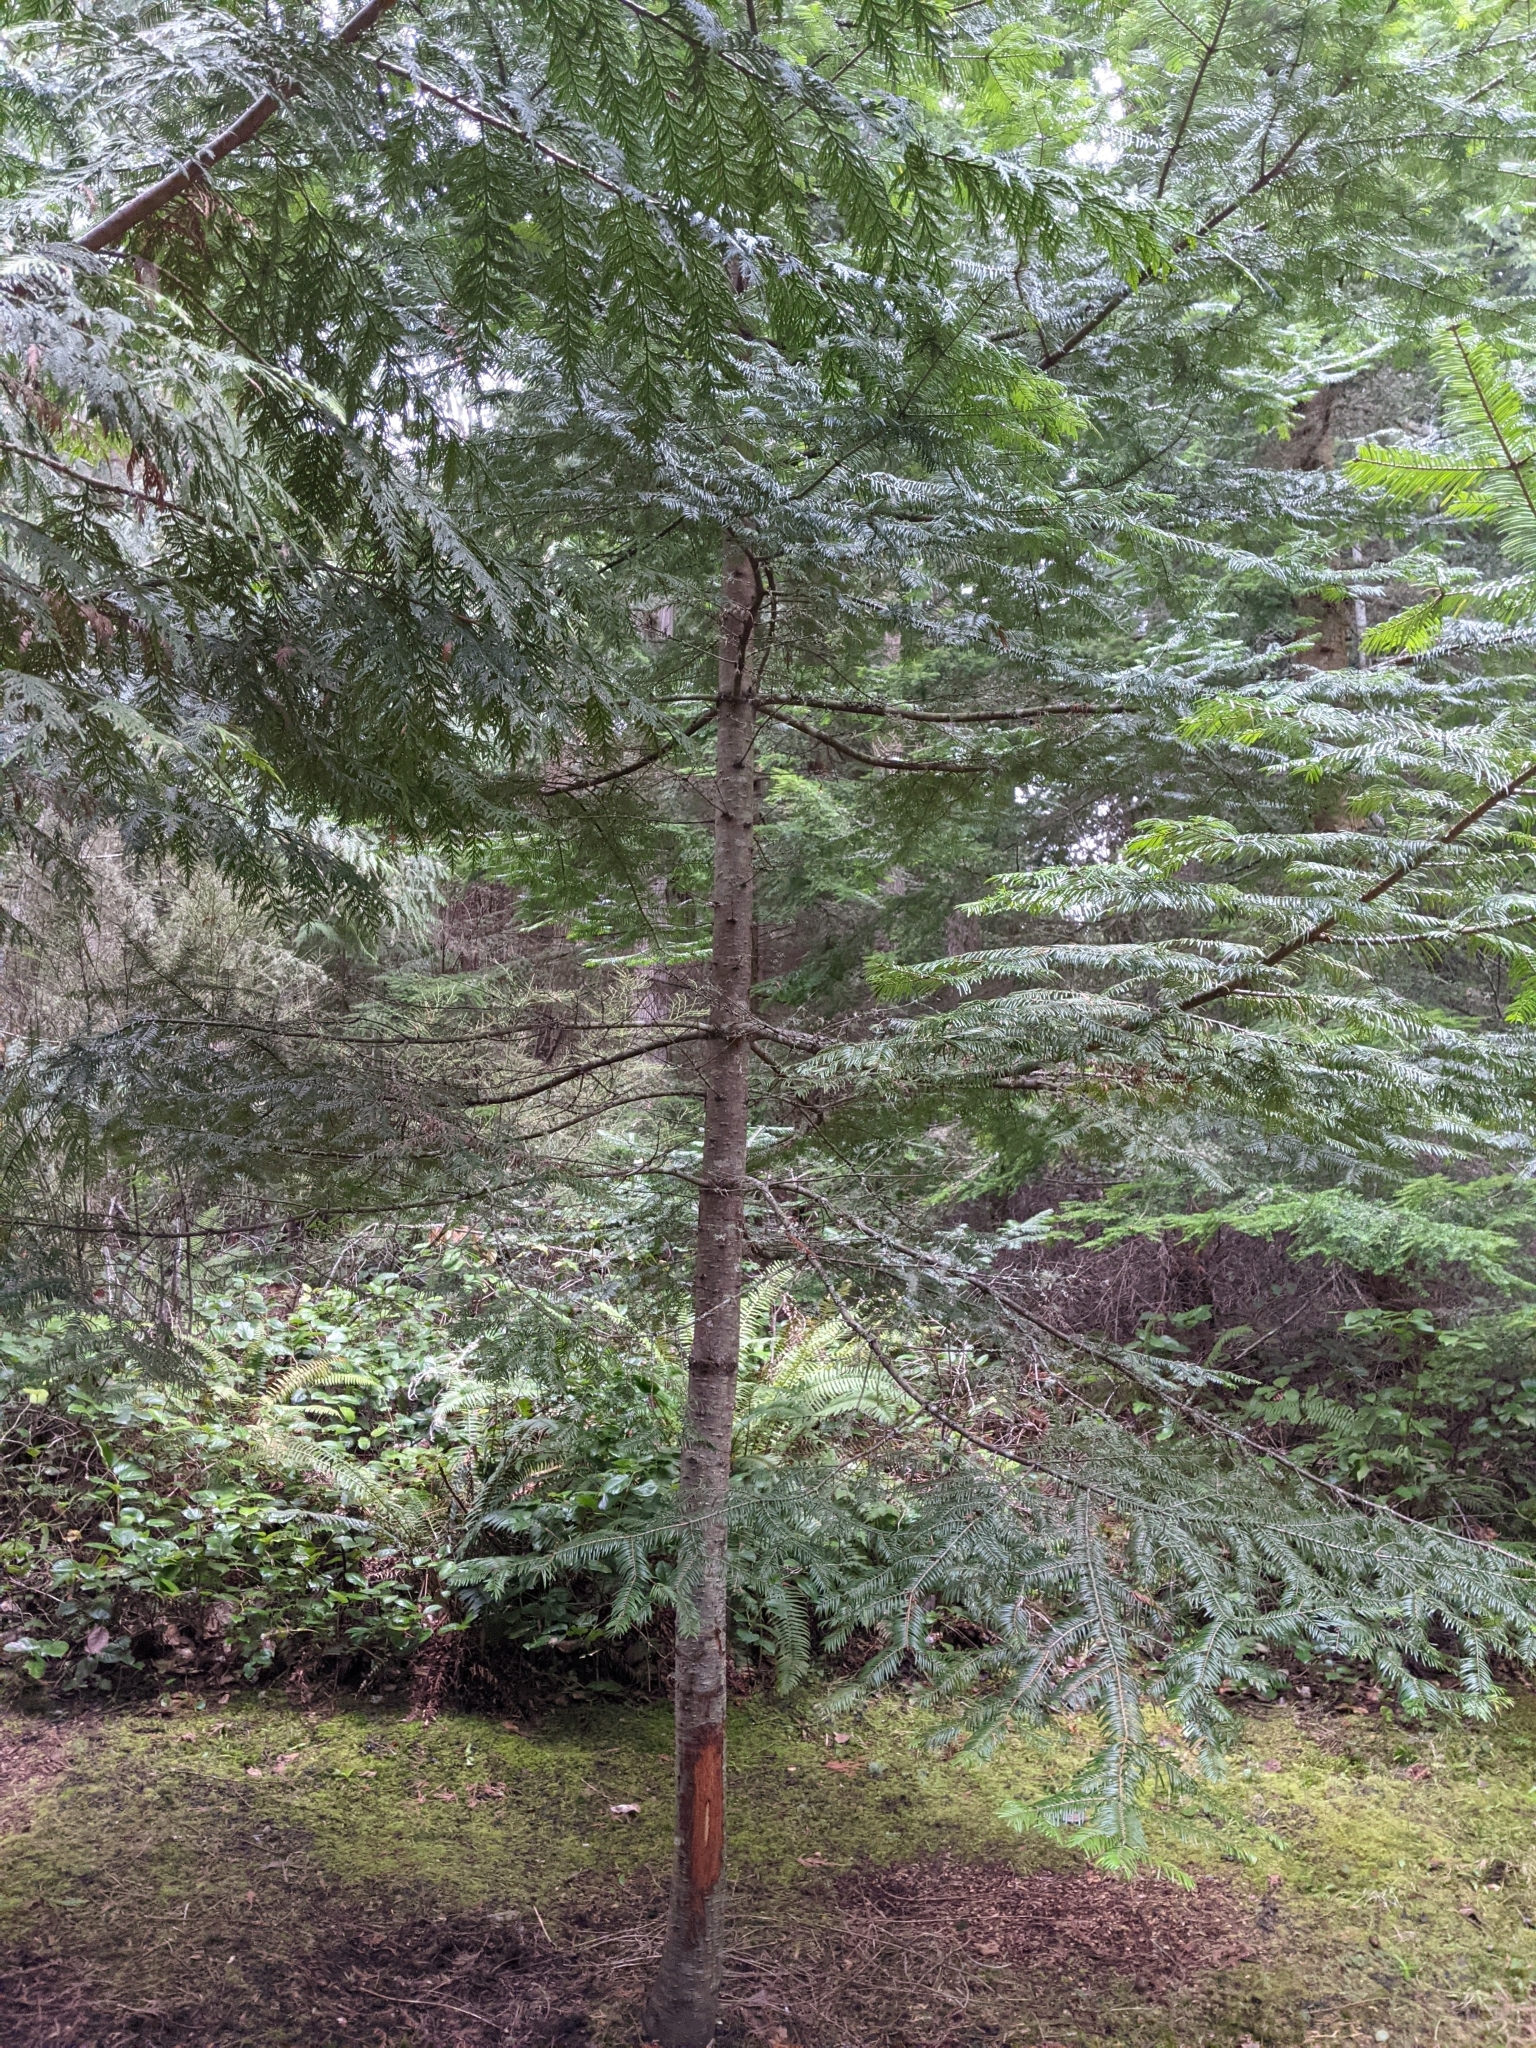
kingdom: Plantae
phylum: Tracheophyta
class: Pinopsida
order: Pinales
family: Pinaceae
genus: Abies
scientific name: Abies grandis
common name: Giant fir
